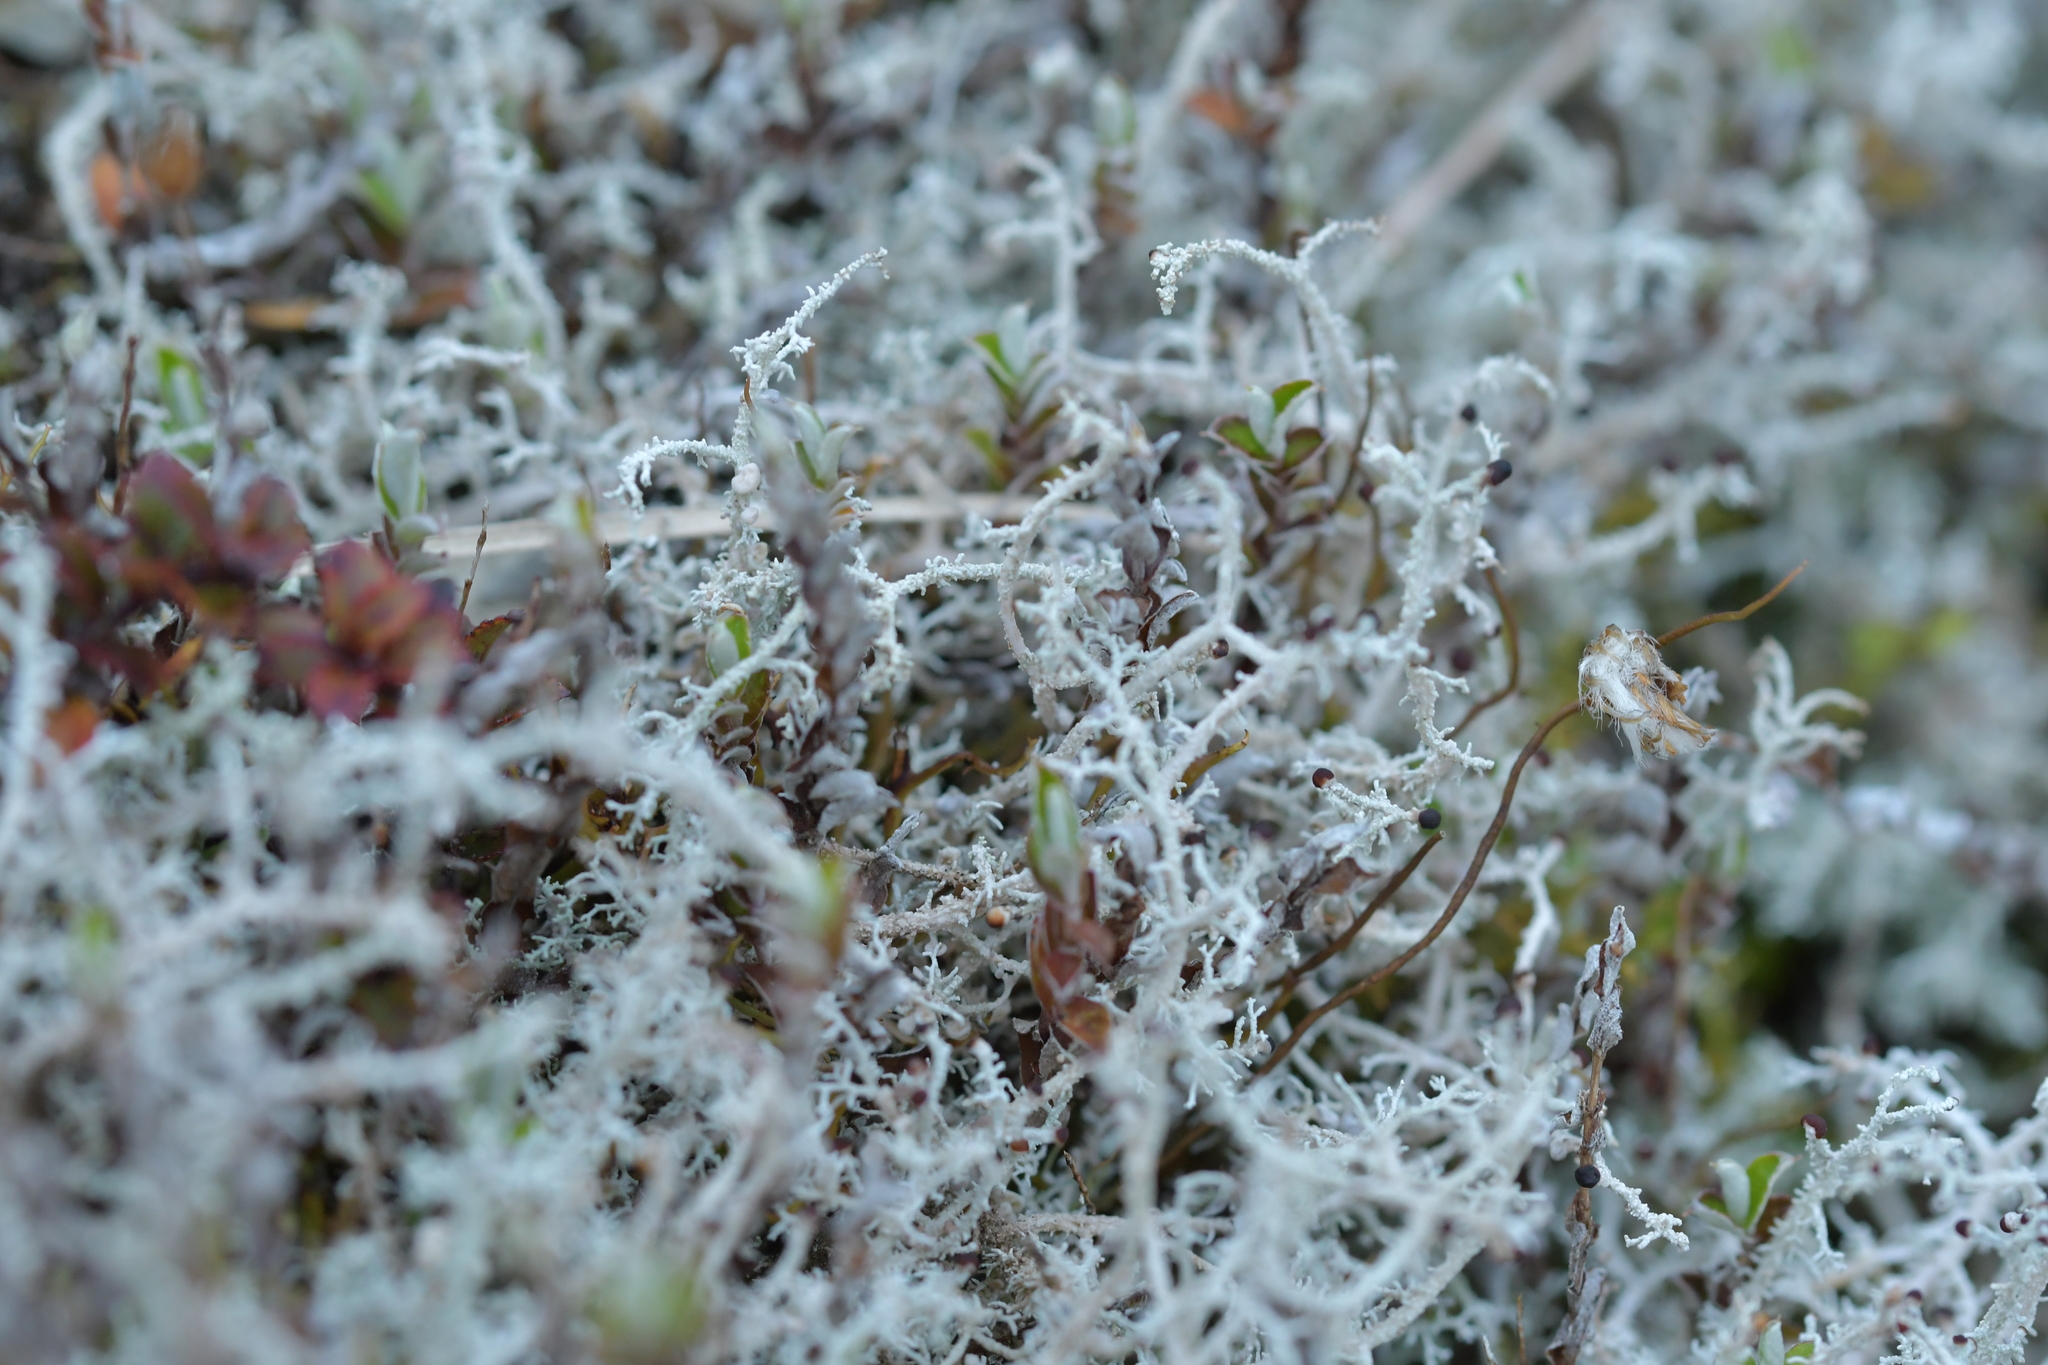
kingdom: Fungi
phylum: Ascomycota
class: Lecanoromycetes
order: Lecanorales
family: Stereocaulaceae
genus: Stereocaulon
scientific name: Stereocaulon ramulosum
